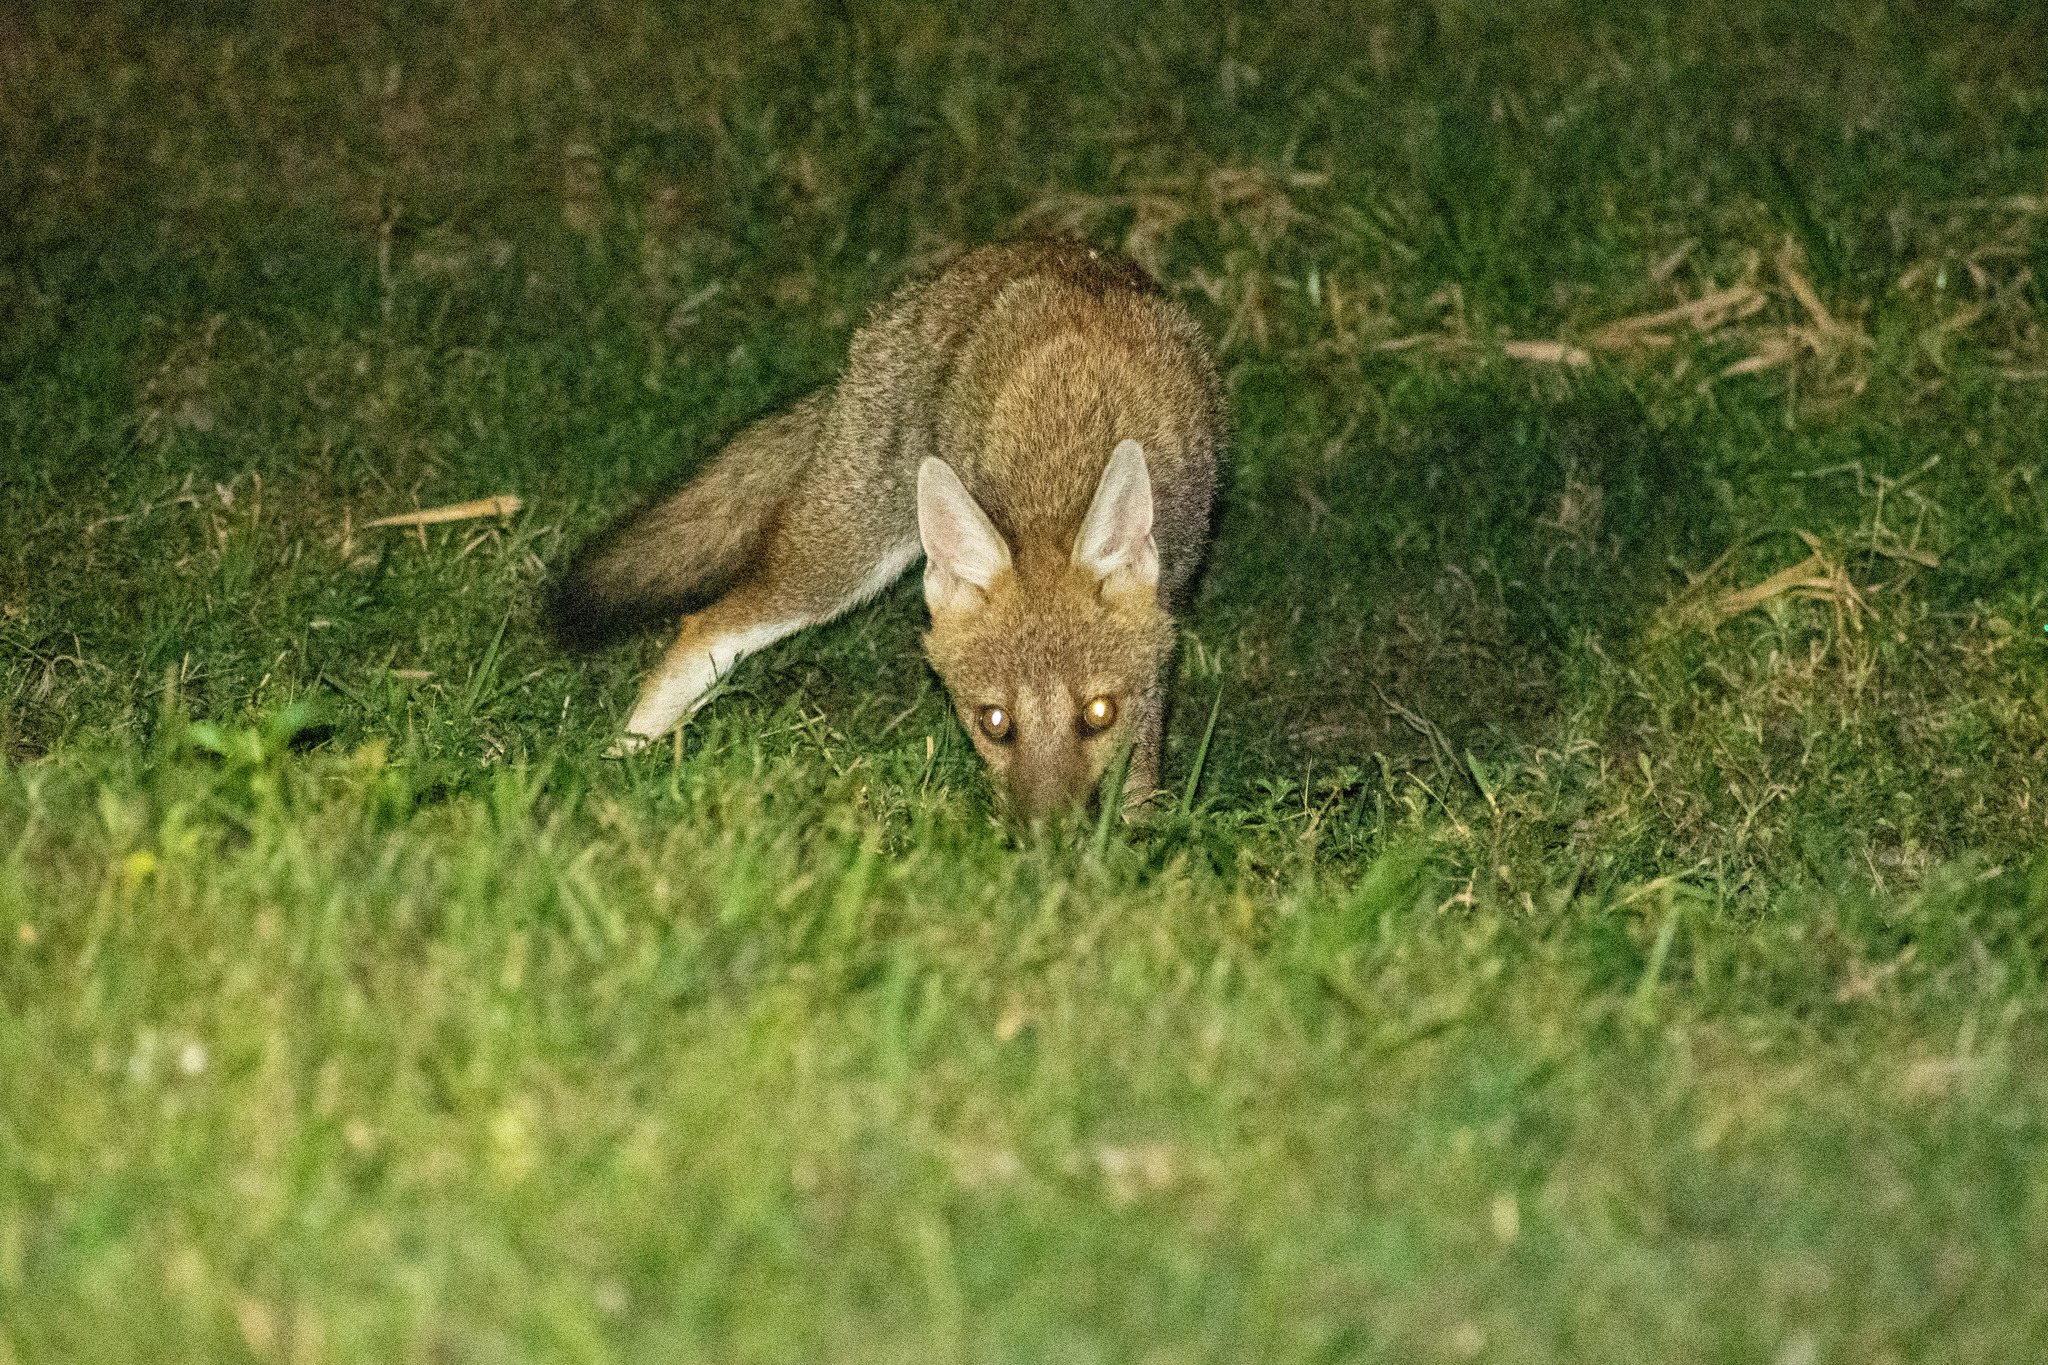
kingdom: Animalia
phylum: Chordata
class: Mammalia
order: Carnivora
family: Canidae
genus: Lycalopex
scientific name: Lycalopex gymnocercus
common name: Pampas fox
